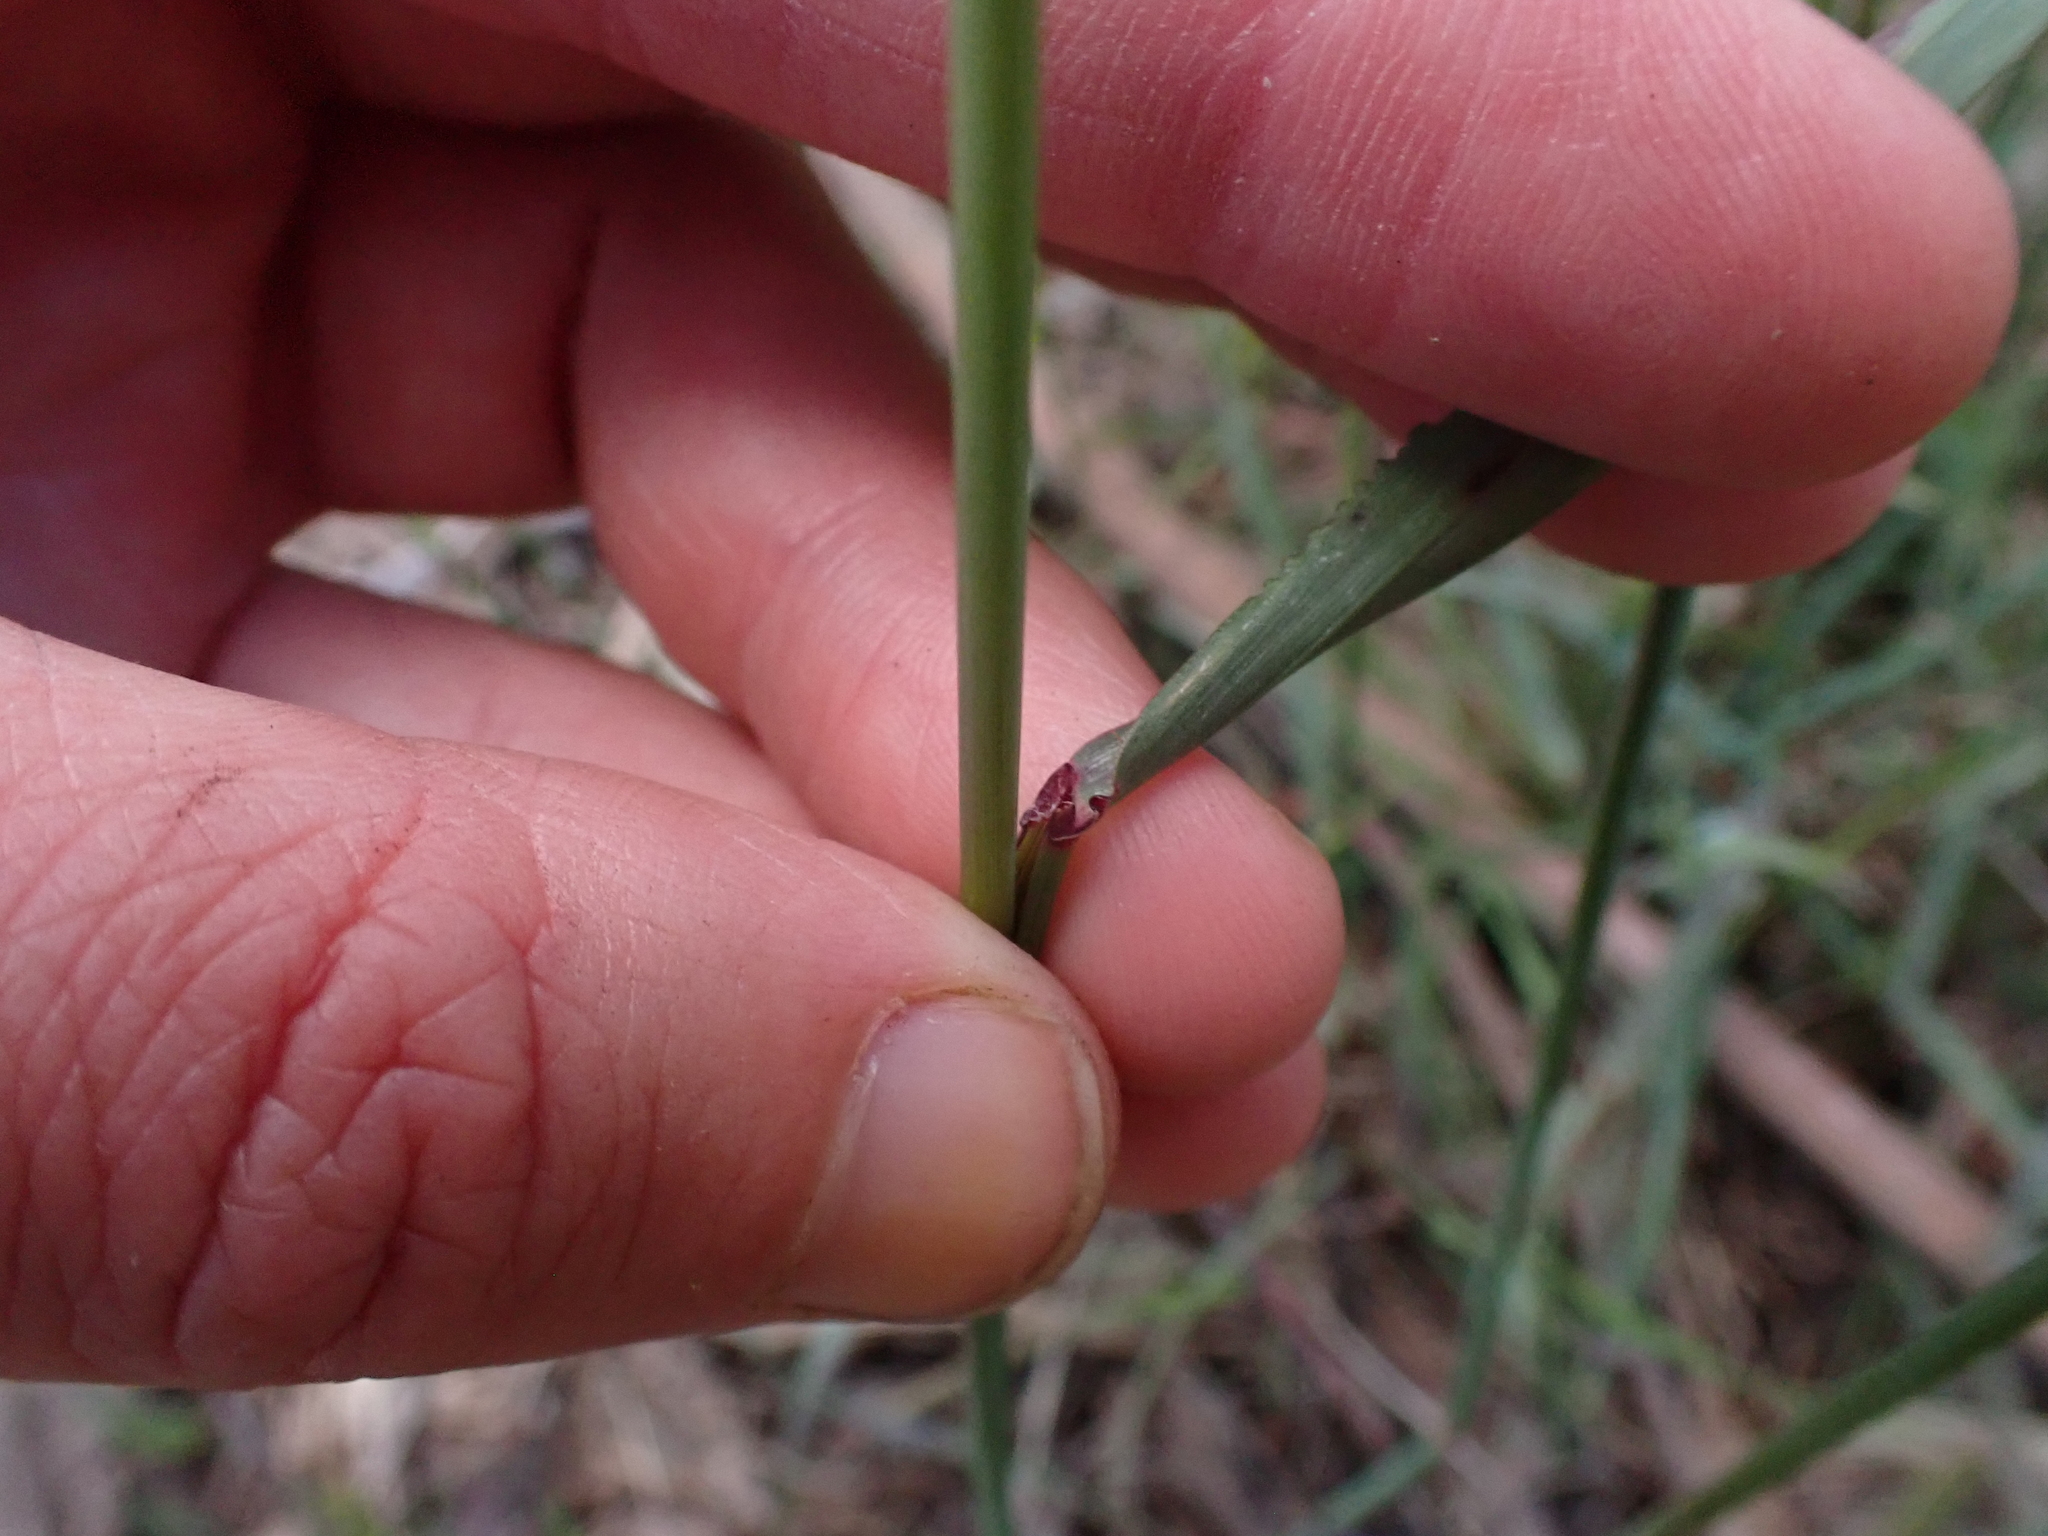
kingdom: Plantae
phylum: Tracheophyta
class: Liliopsida
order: Poales
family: Poaceae
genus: Ehrharta
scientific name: Ehrharta calycina
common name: Perennial veldtgrass
